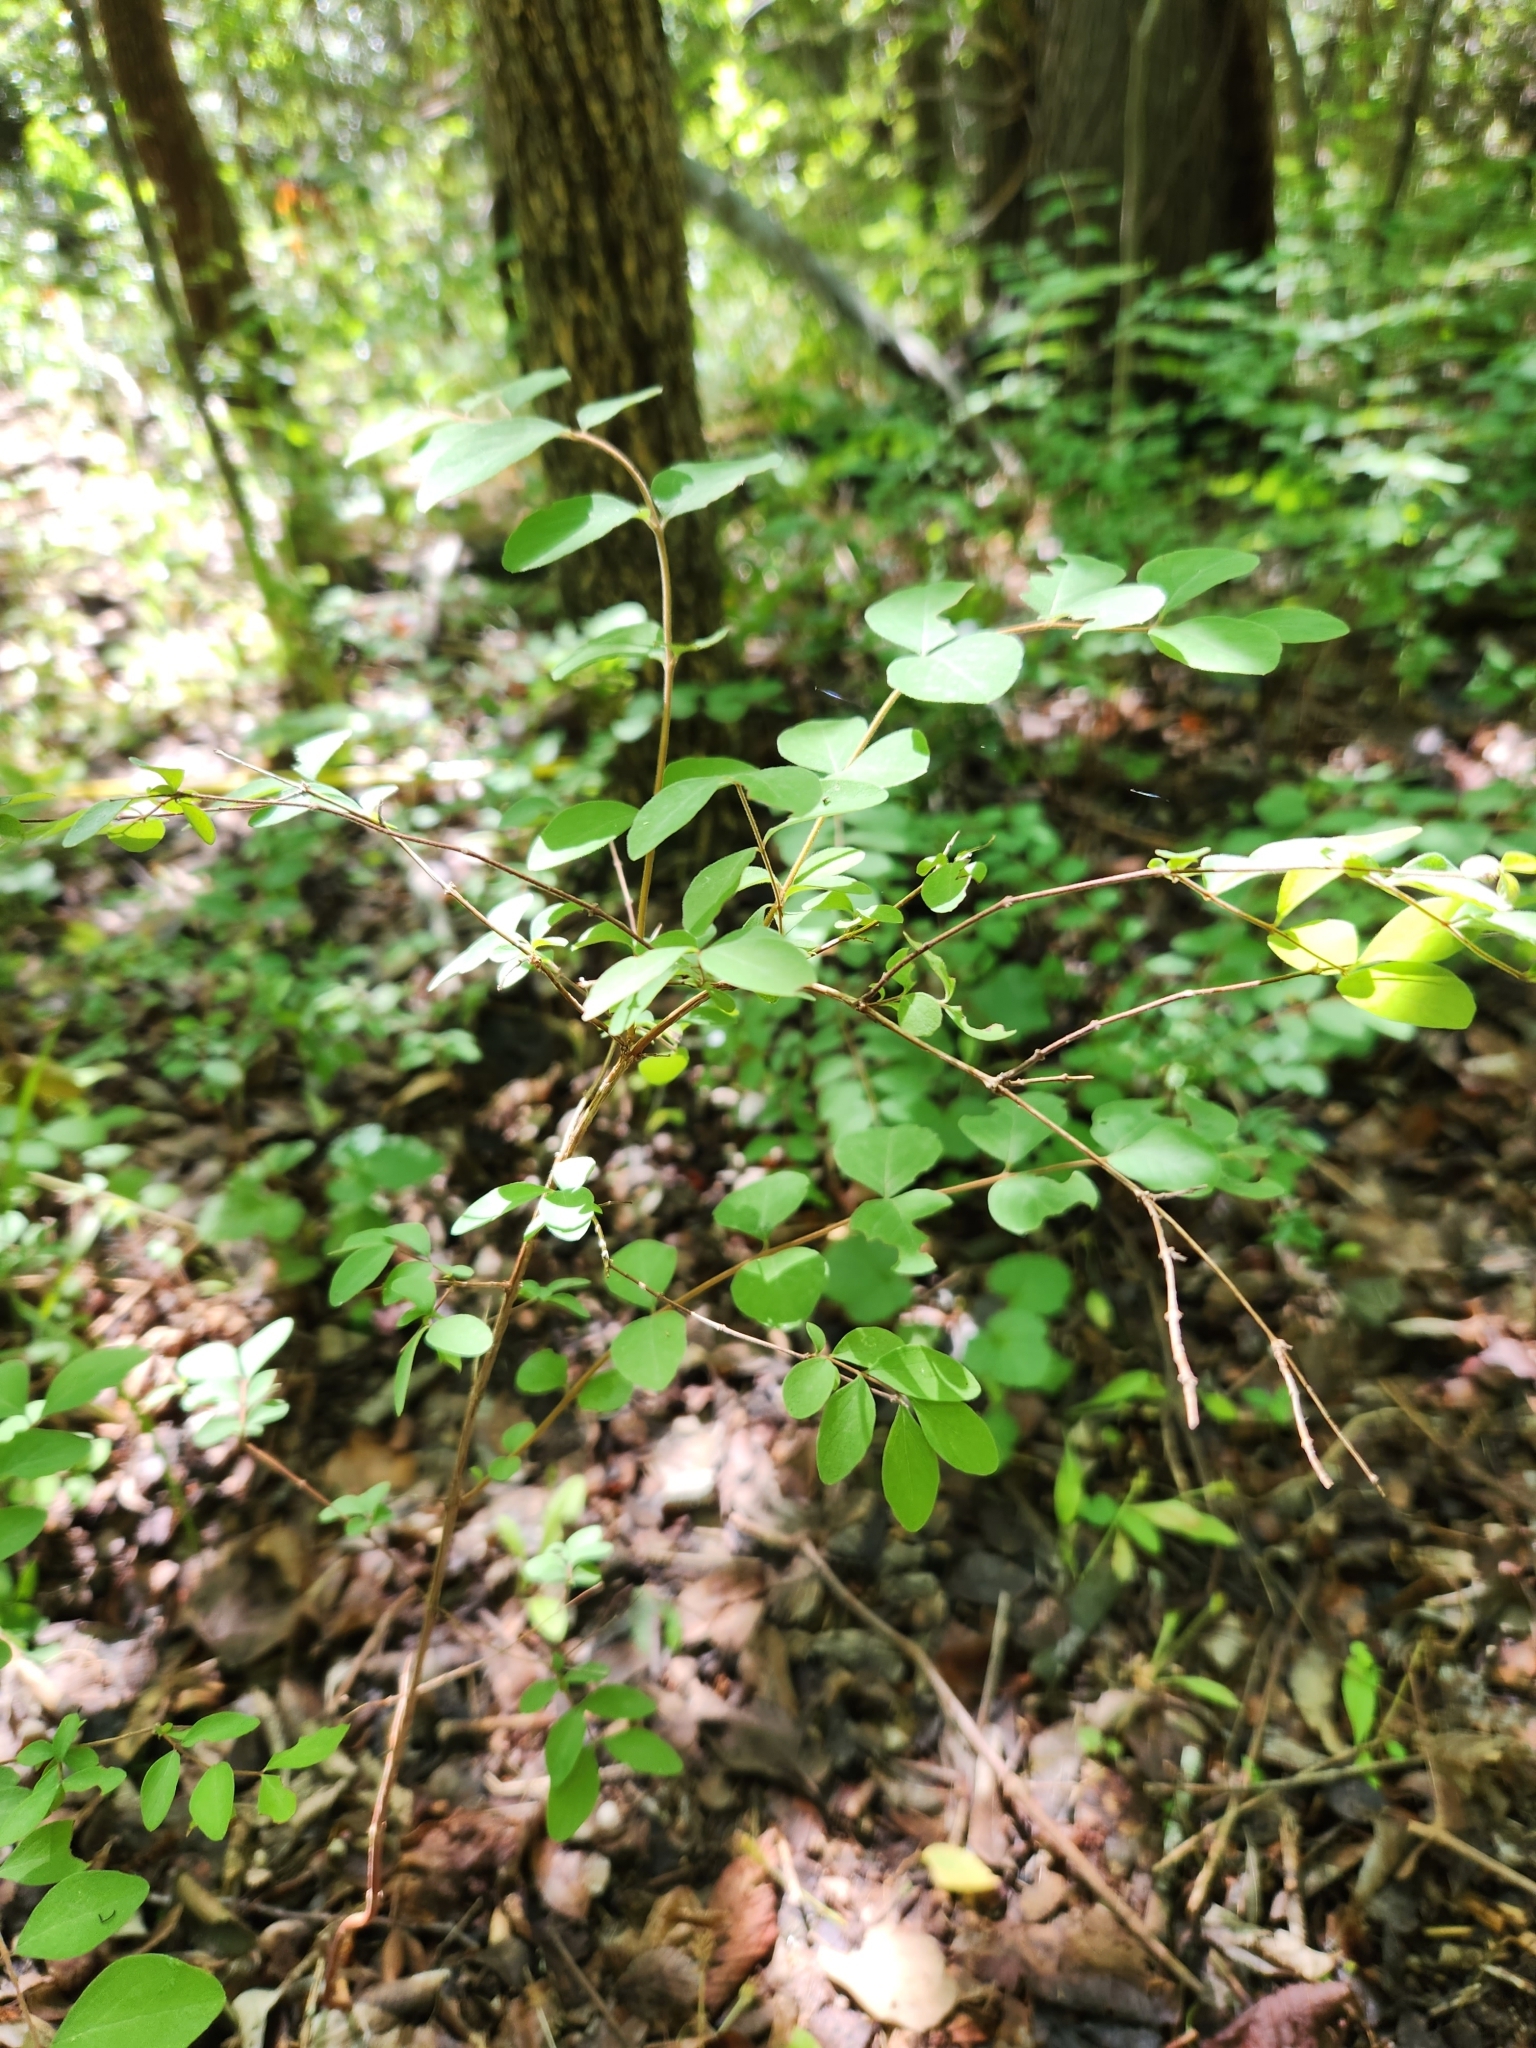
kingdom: Plantae
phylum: Tracheophyta
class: Magnoliopsida
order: Dipsacales
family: Caprifoliaceae
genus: Symphoricarpos
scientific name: Symphoricarpos orbiculatus
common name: Coralberry
